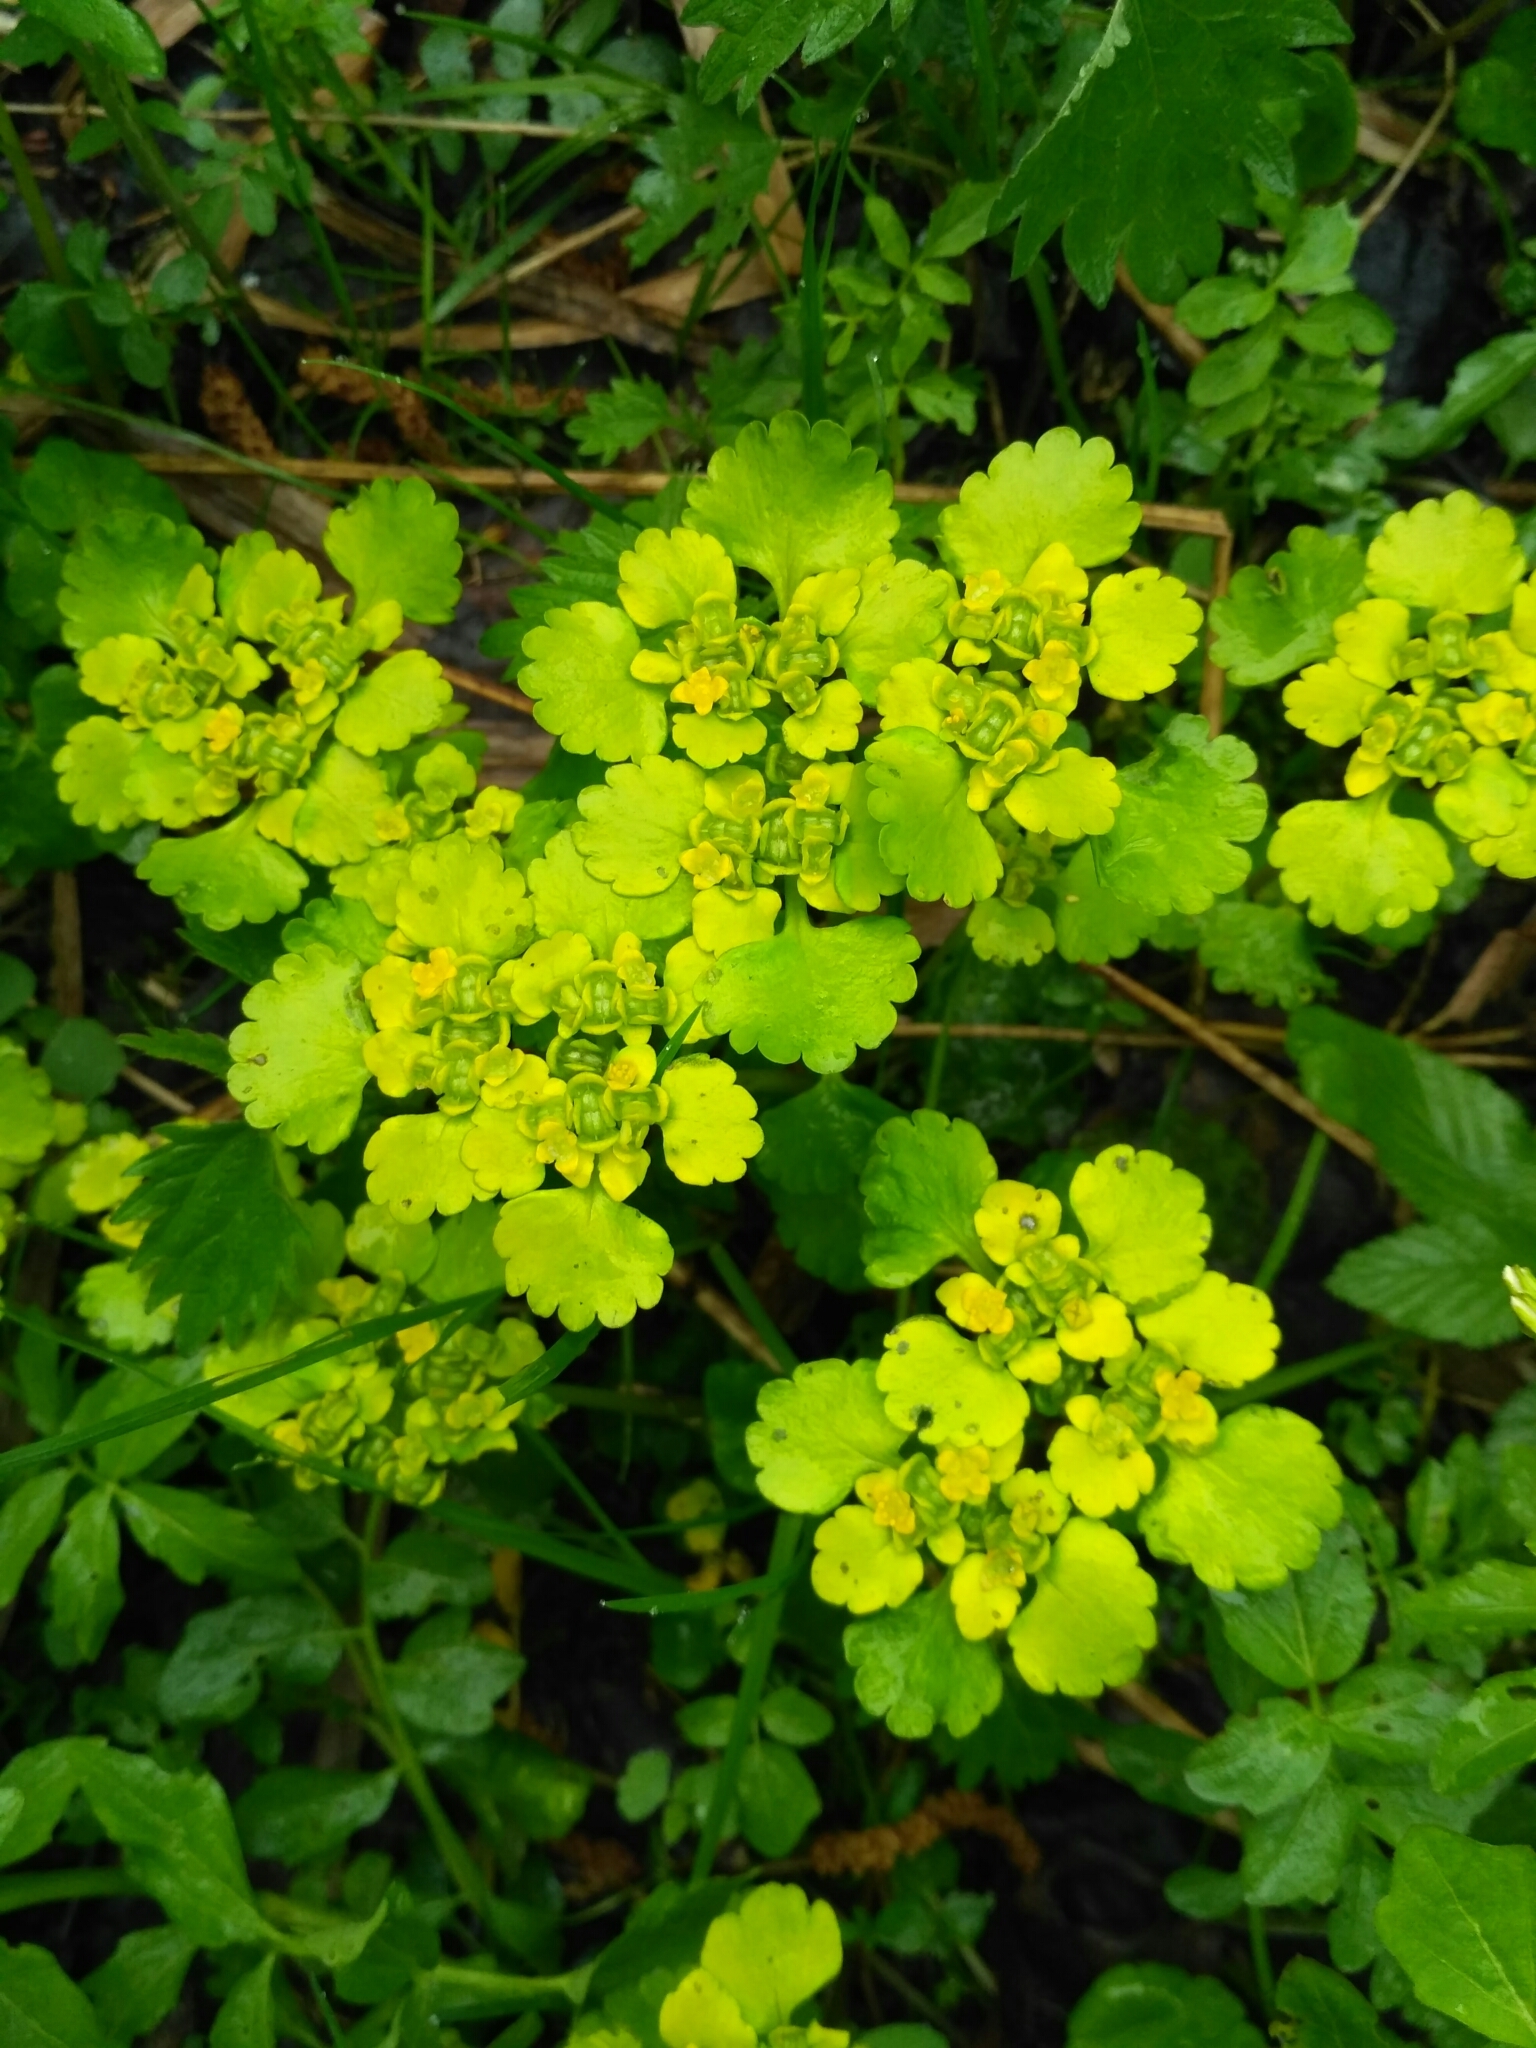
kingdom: Plantae
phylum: Tracheophyta
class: Magnoliopsida
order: Saxifragales
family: Saxifragaceae
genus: Chrysosplenium
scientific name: Chrysosplenium alternifolium
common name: Alternate-leaved golden-saxifrage
